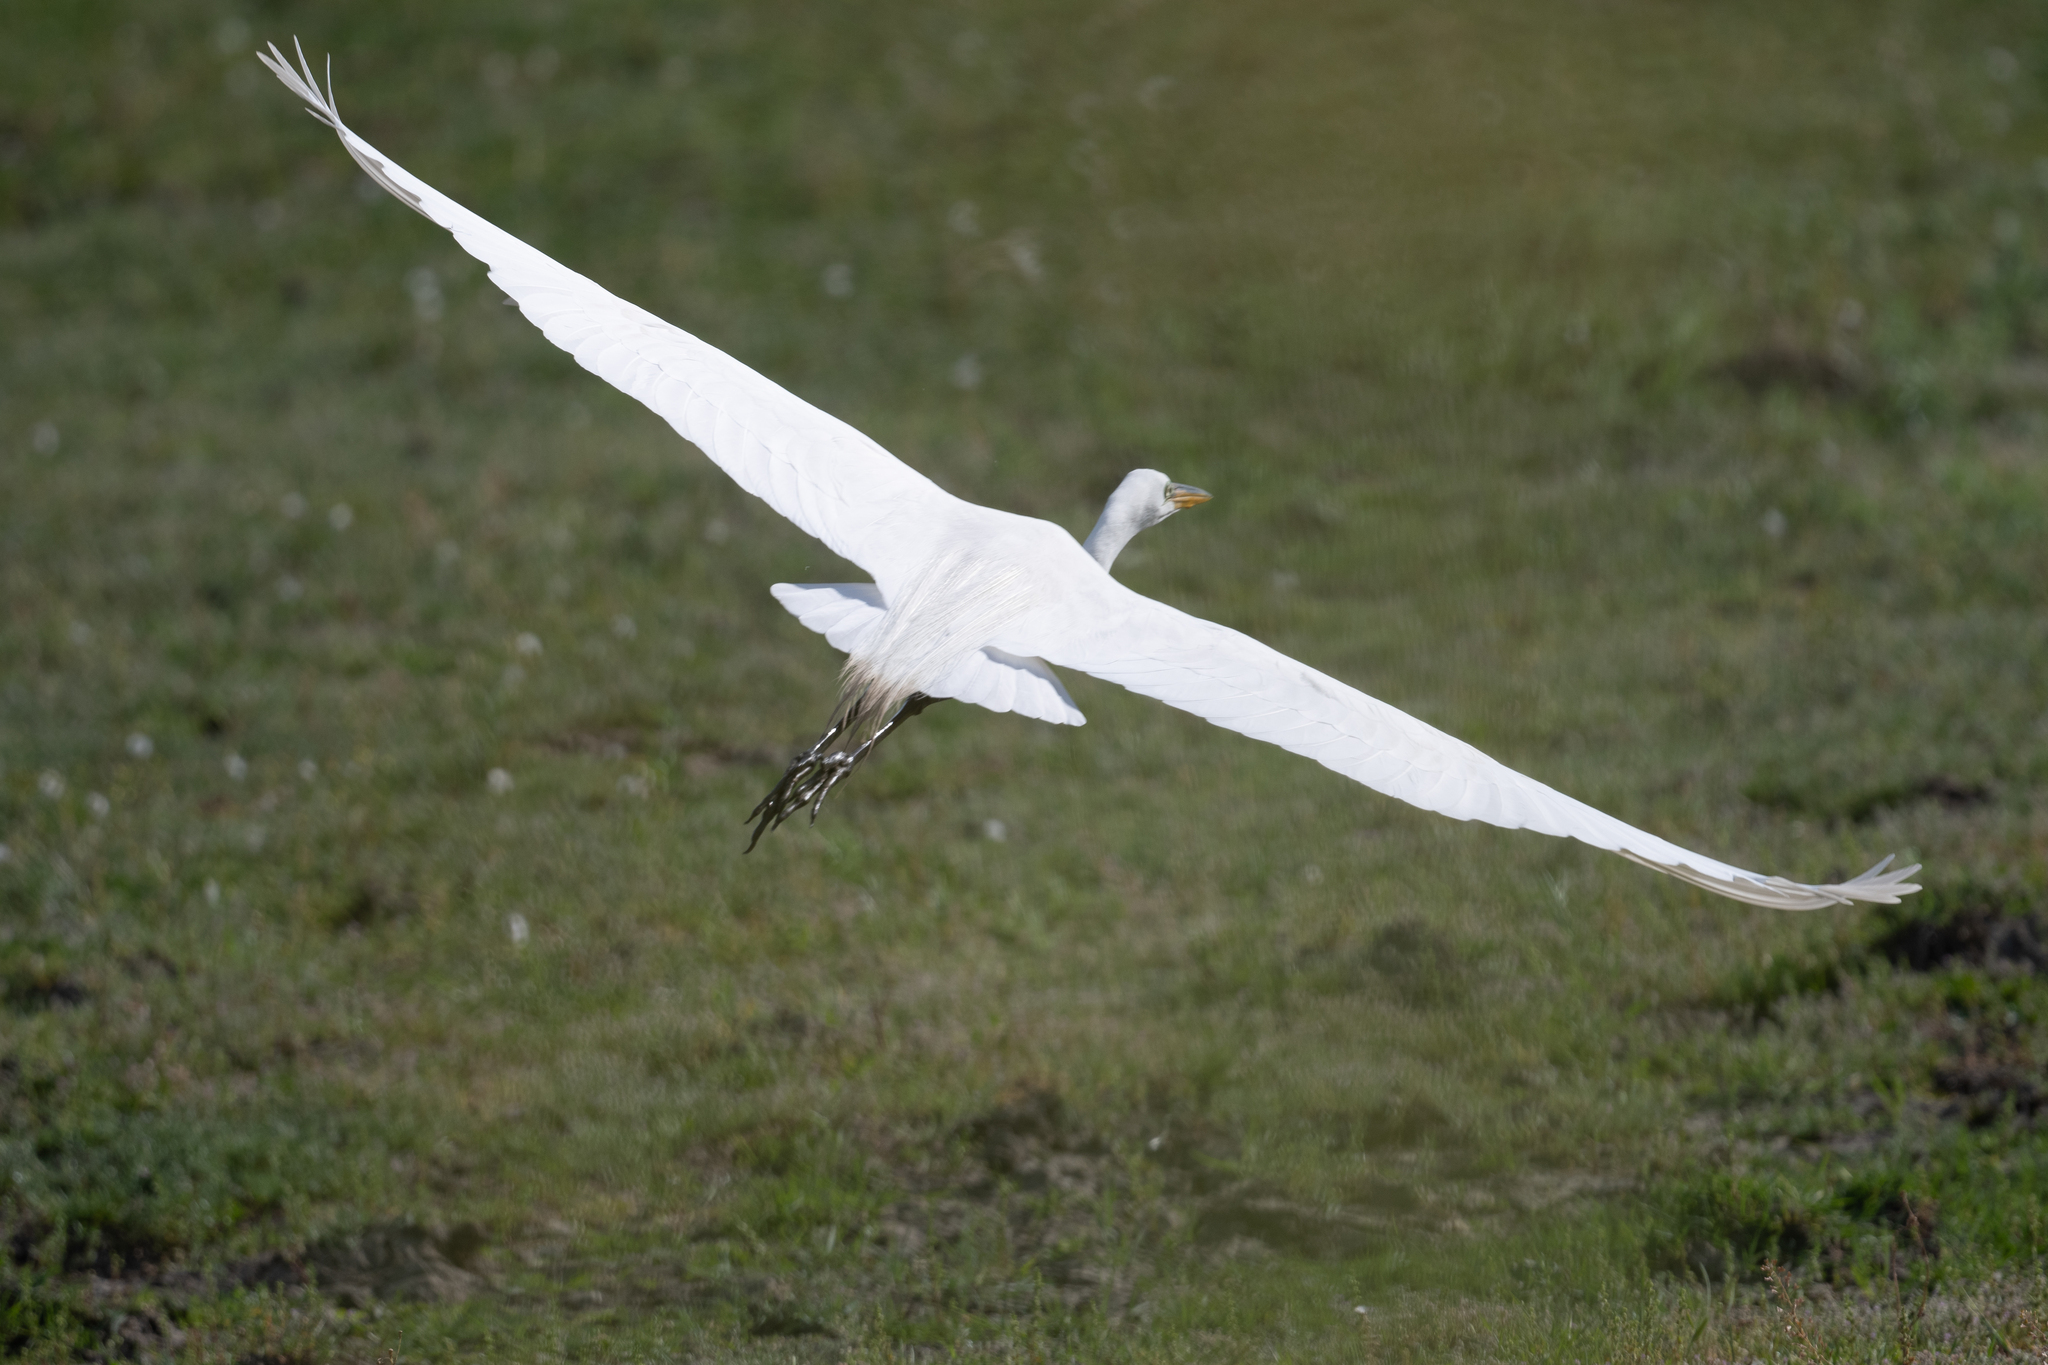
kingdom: Animalia
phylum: Chordata
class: Aves
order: Pelecaniformes
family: Ardeidae
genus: Ardea
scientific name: Ardea alba
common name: Great egret
